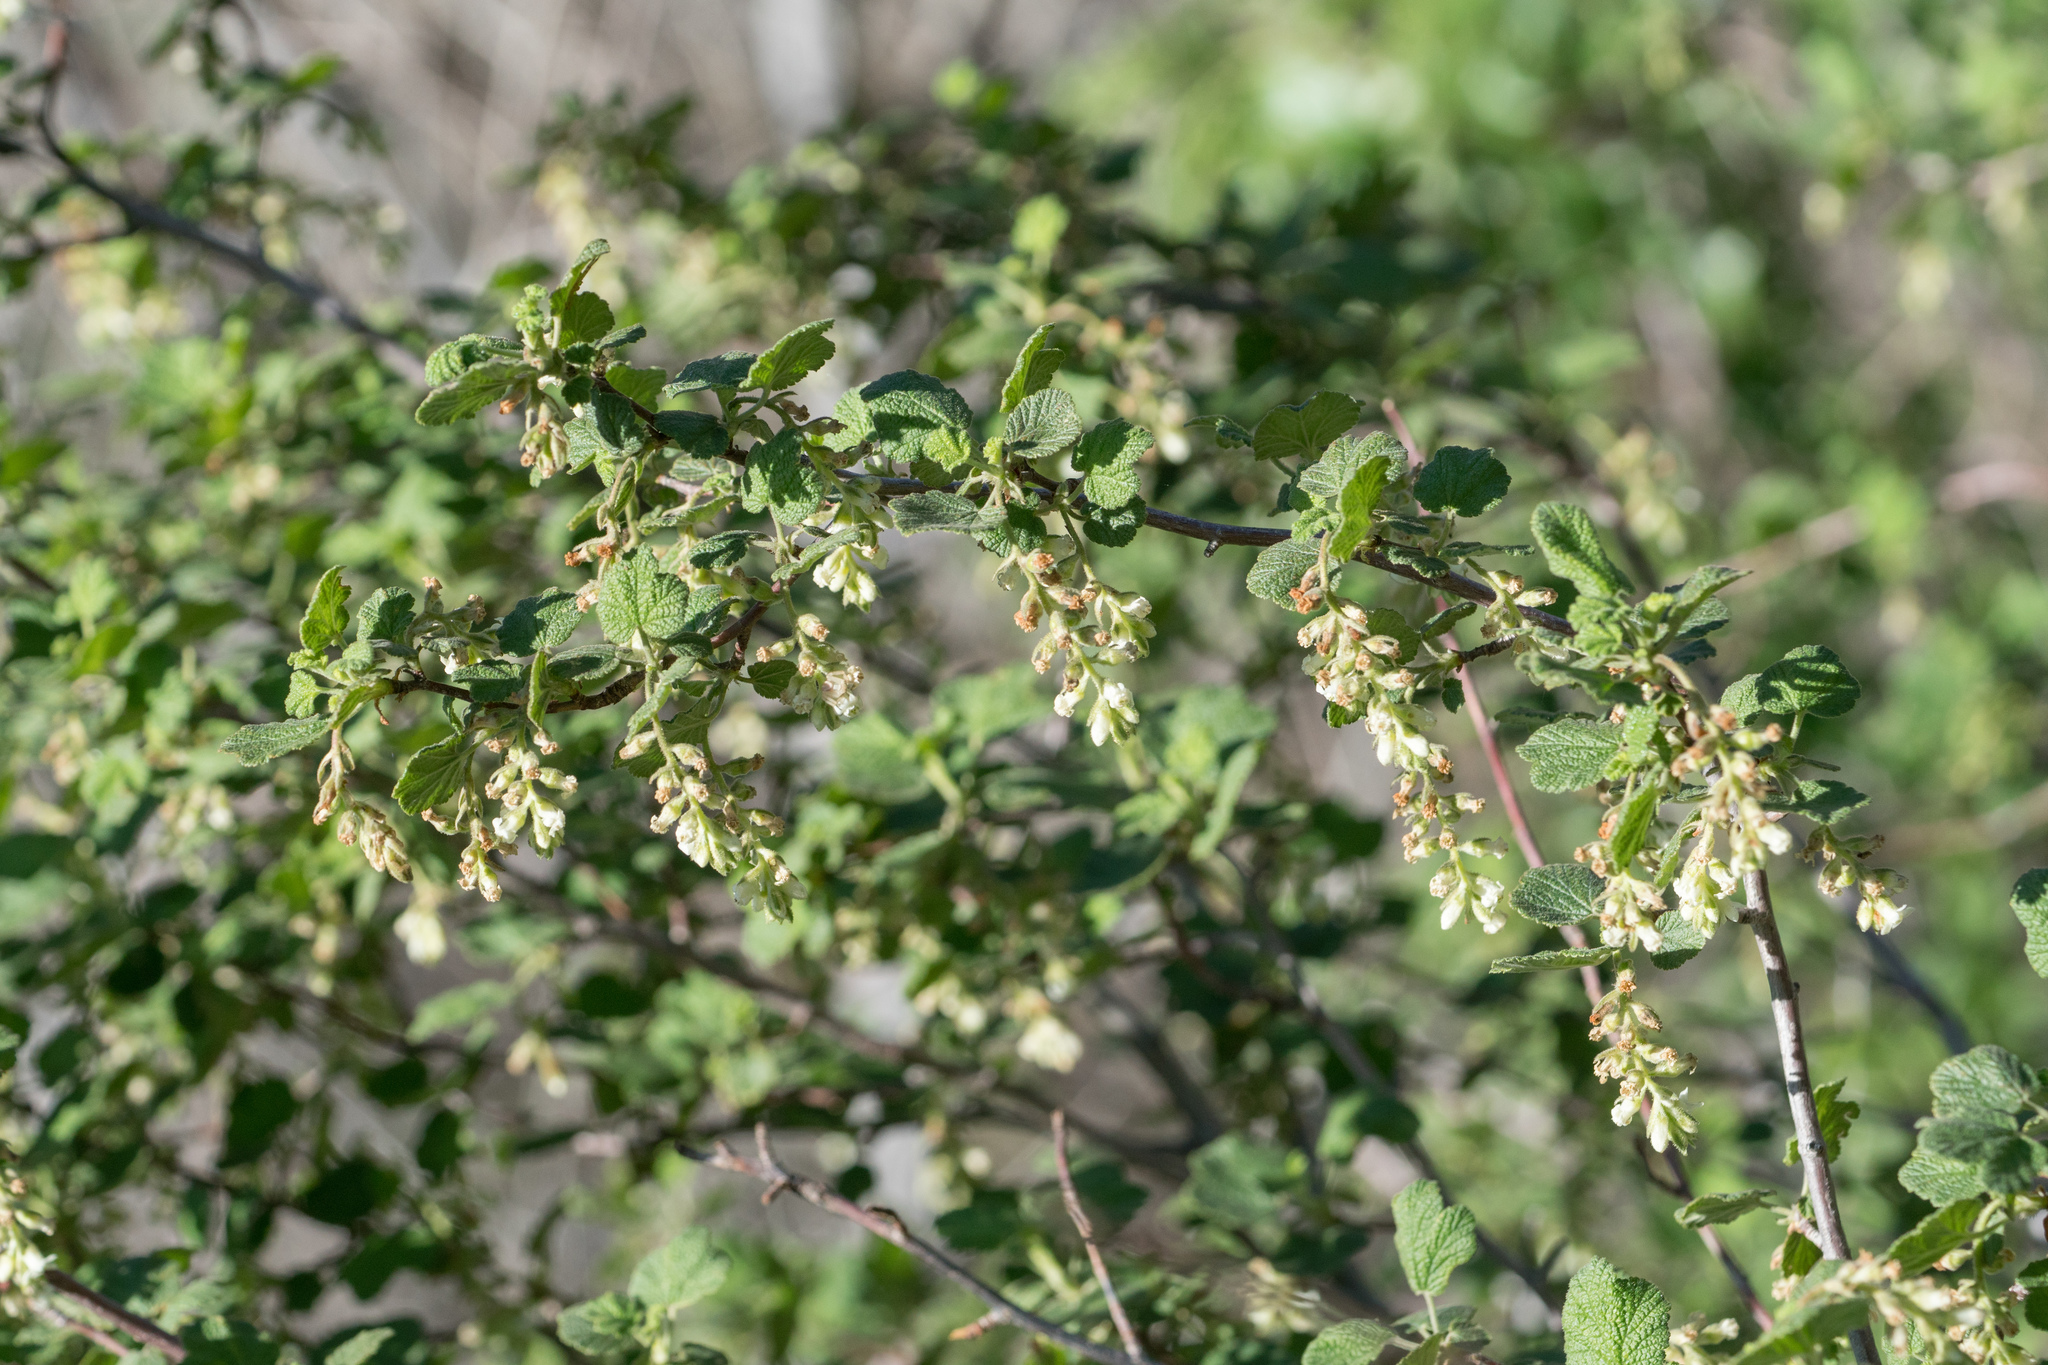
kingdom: Plantae
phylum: Tracheophyta
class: Magnoliopsida
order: Saxifragales
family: Grossulariaceae
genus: Ribes
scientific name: Ribes indecorum
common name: White-flower currant
